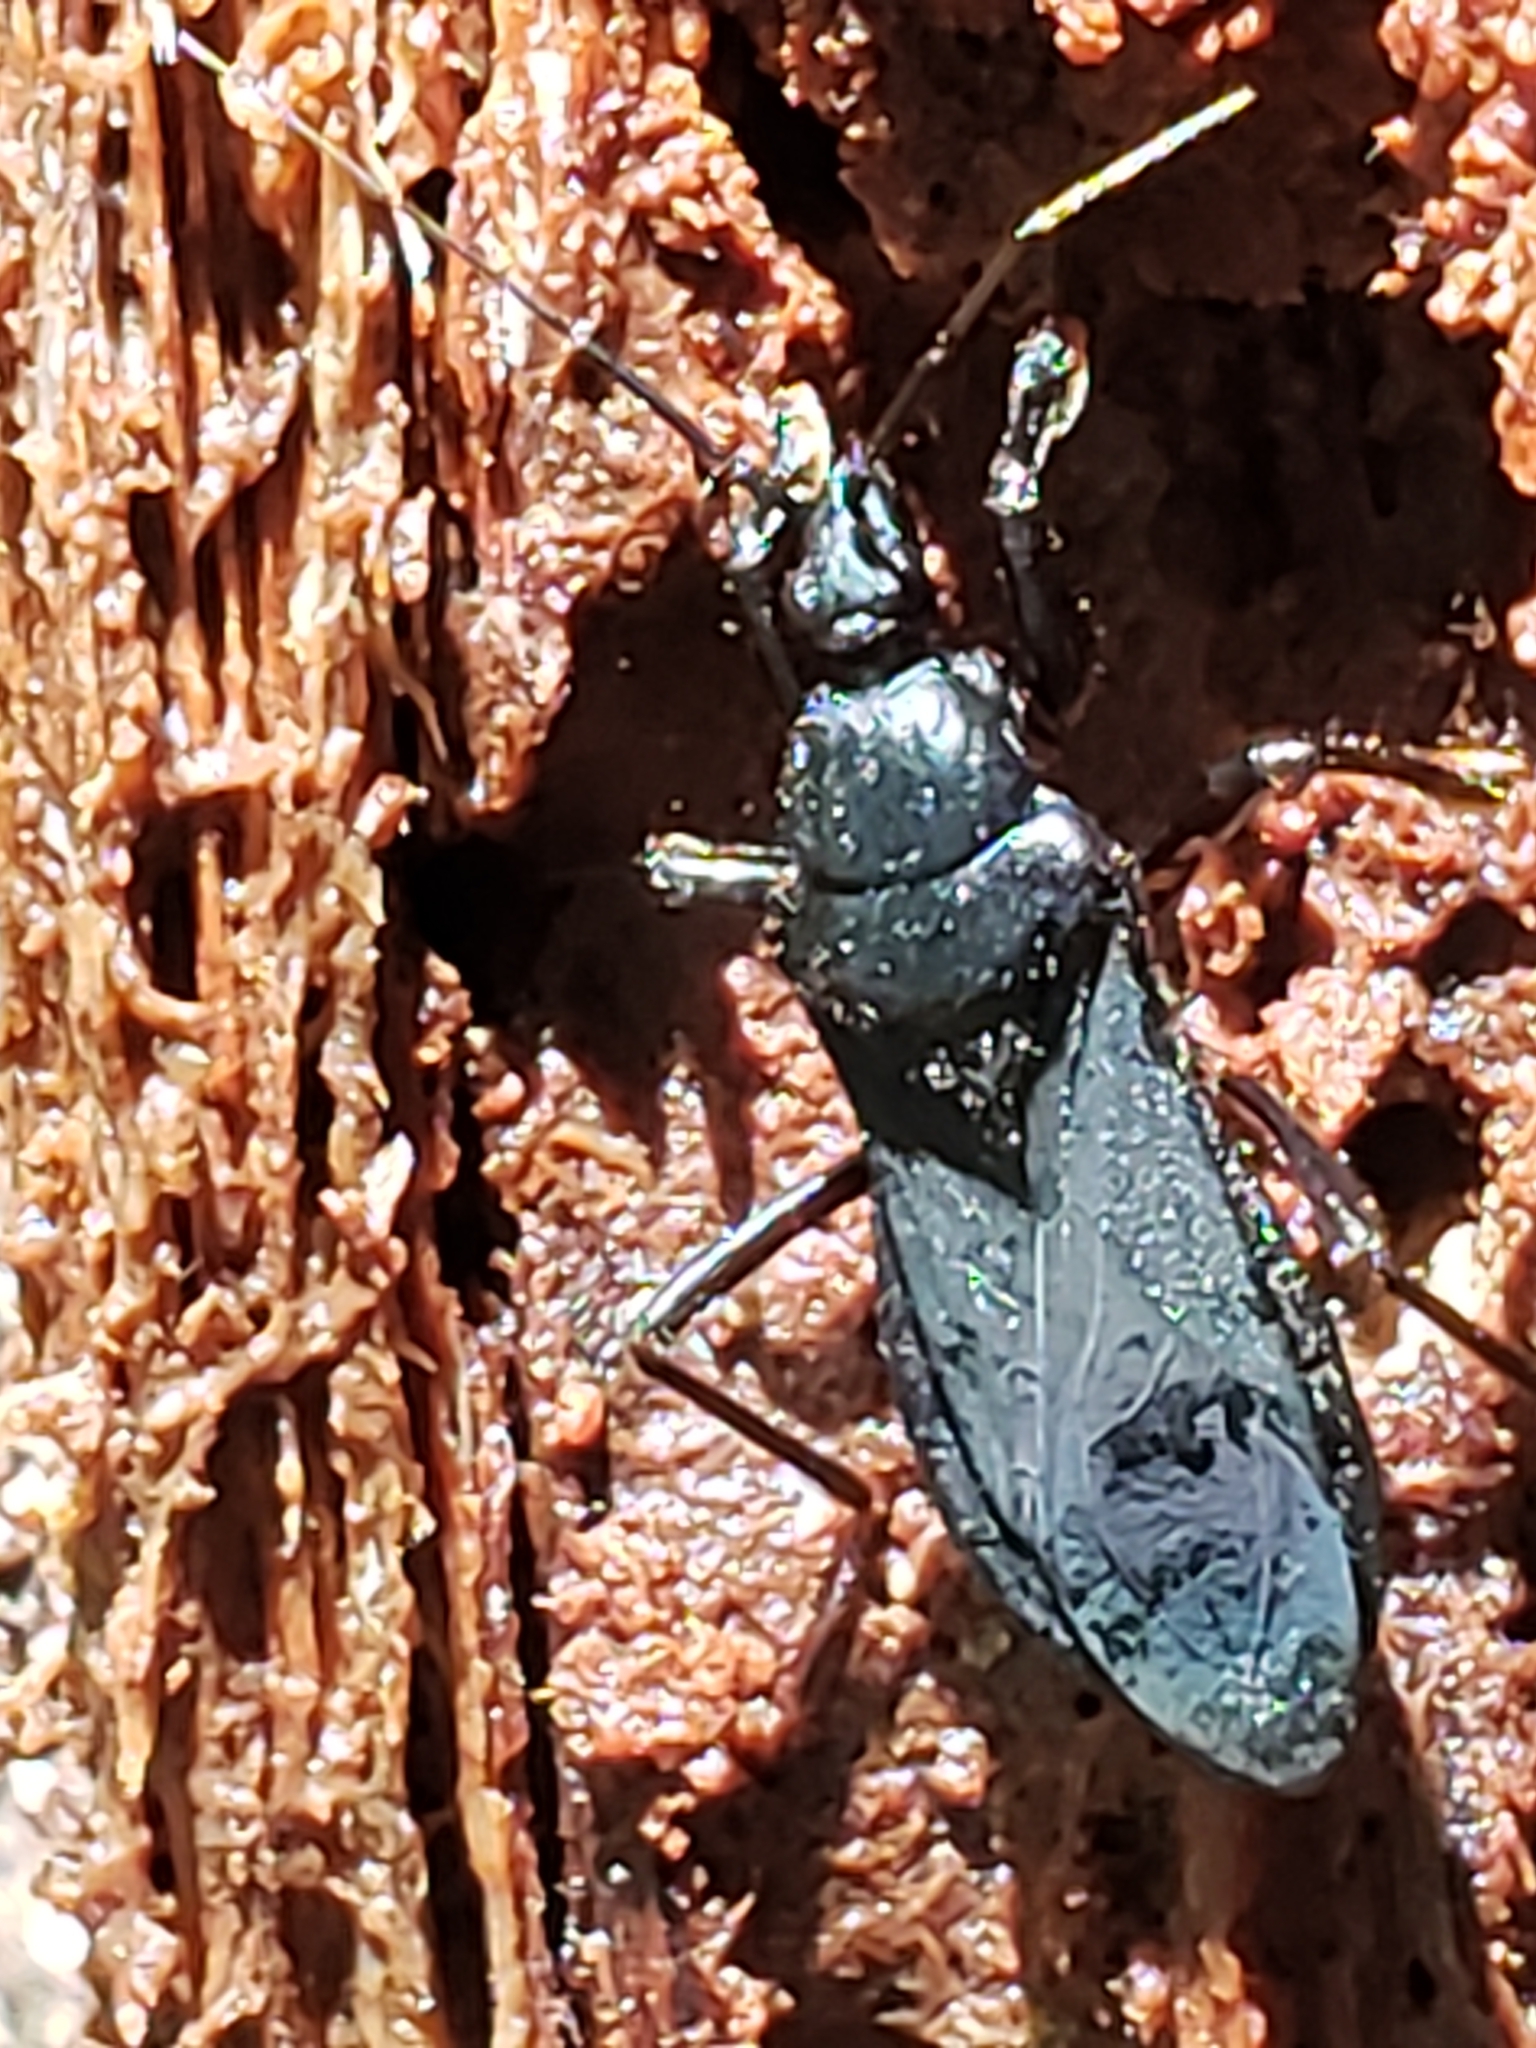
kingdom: Animalia
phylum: Arthropoda
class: Insecta
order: Hemiptera
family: Reduviidae
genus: Melanolestes
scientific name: Melanolestes picipes
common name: Assassin bug
